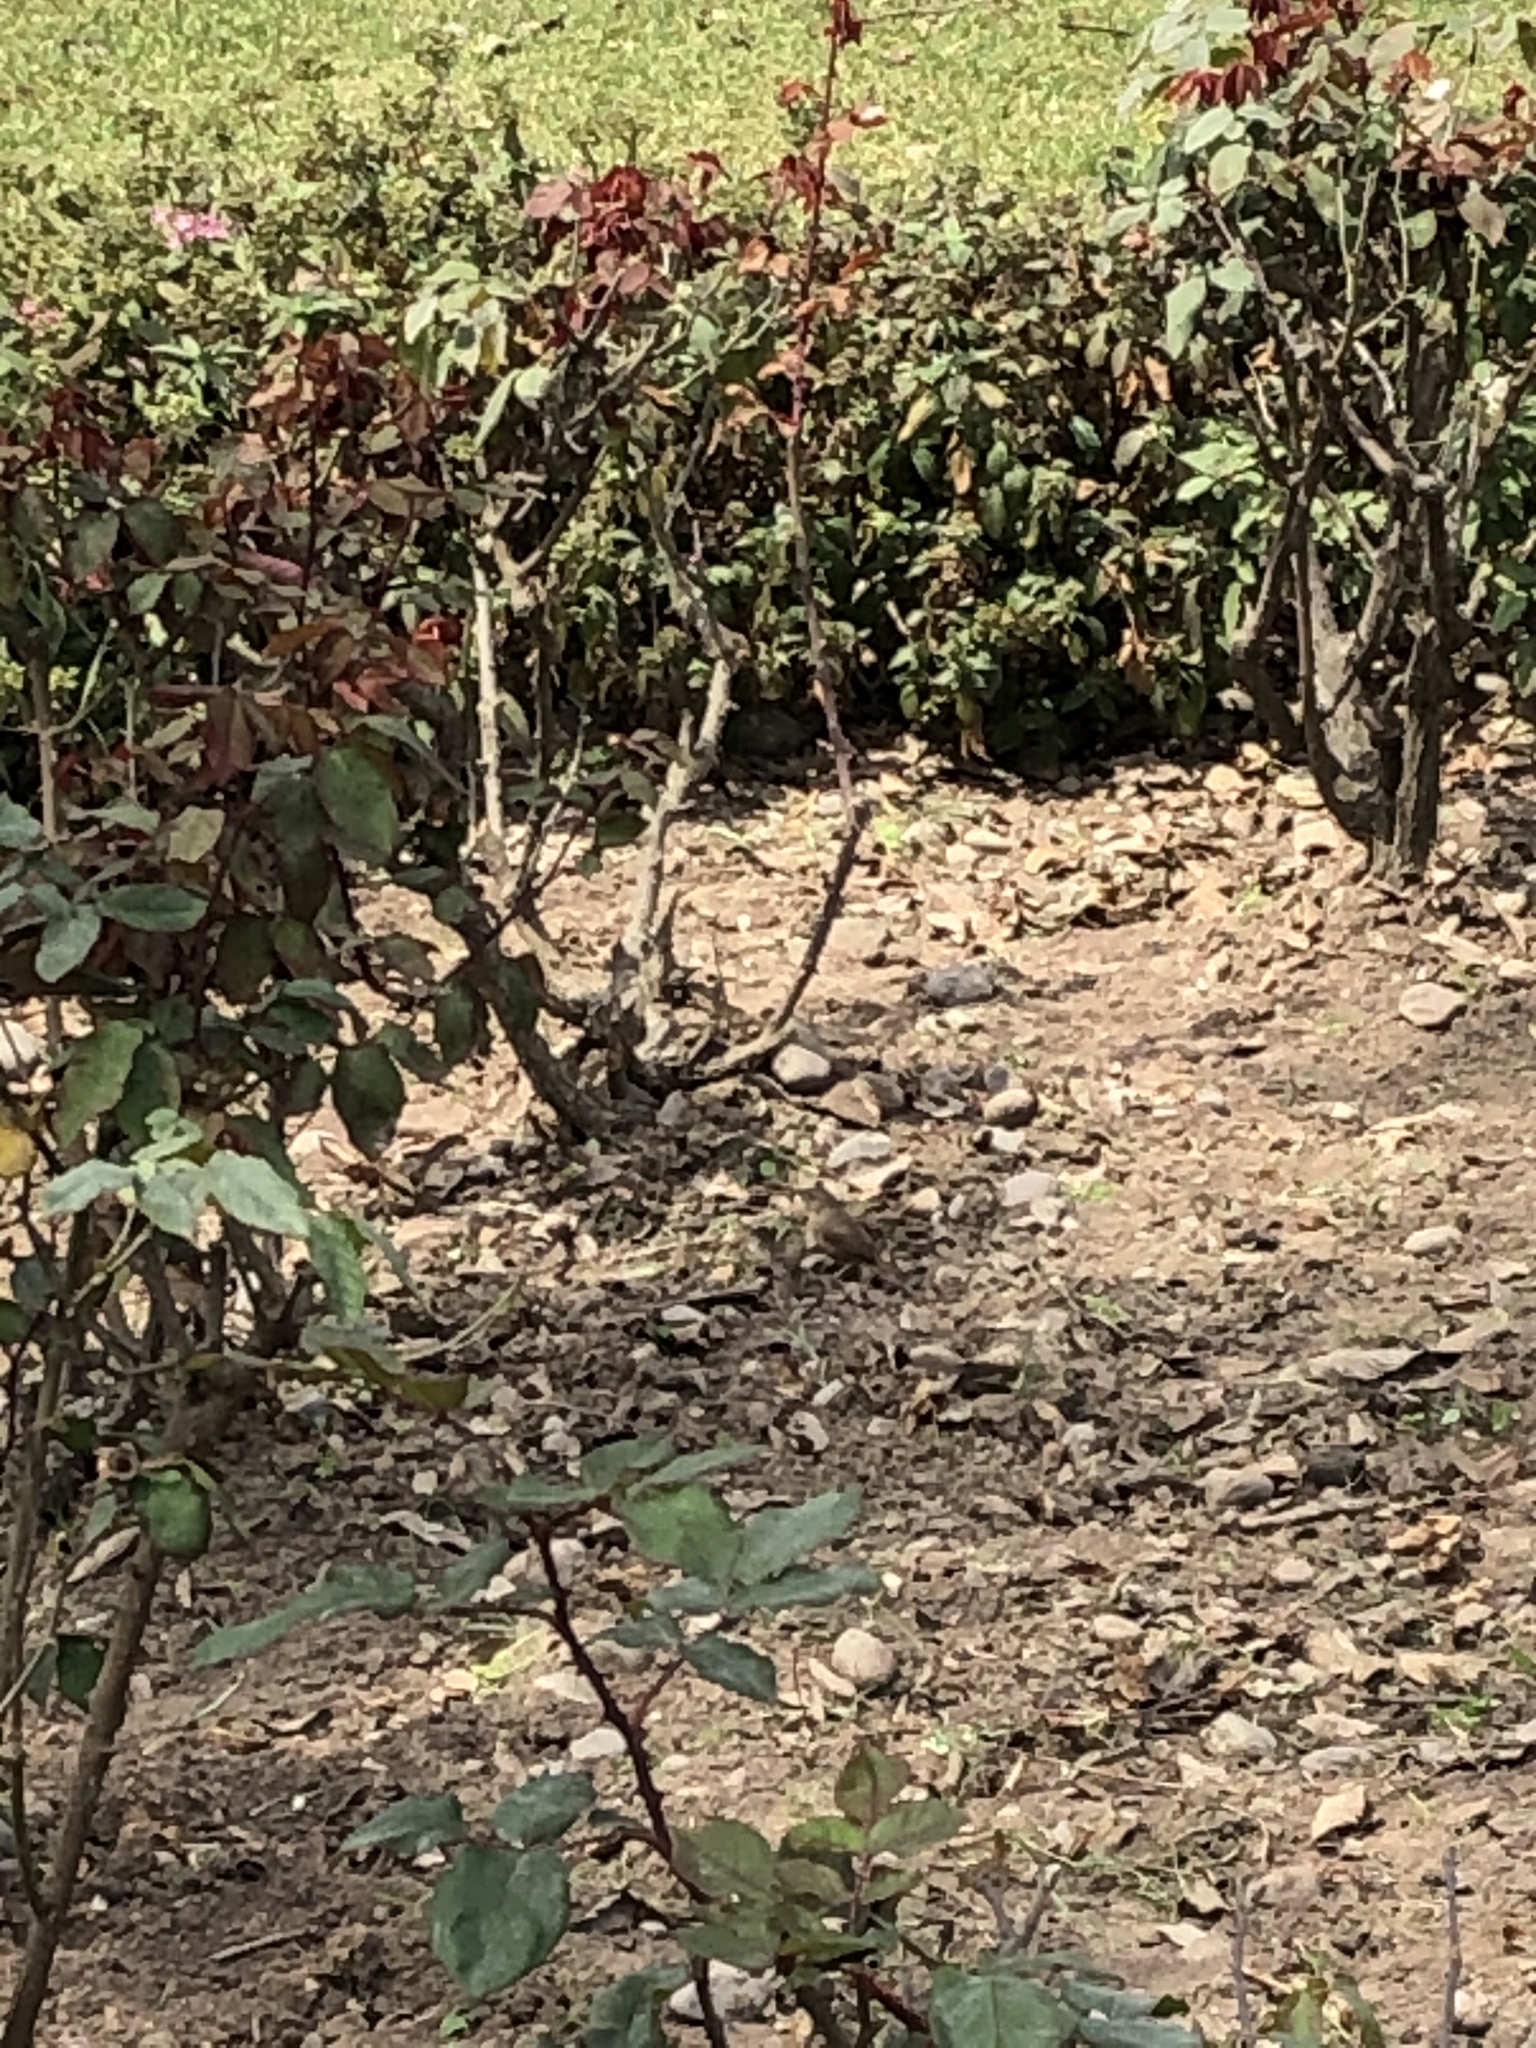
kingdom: Animalia
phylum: Chordata
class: Aves
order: Passeriformes
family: Troglodytidae
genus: Troglodytes
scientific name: Troglodytes aedon
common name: House wren
